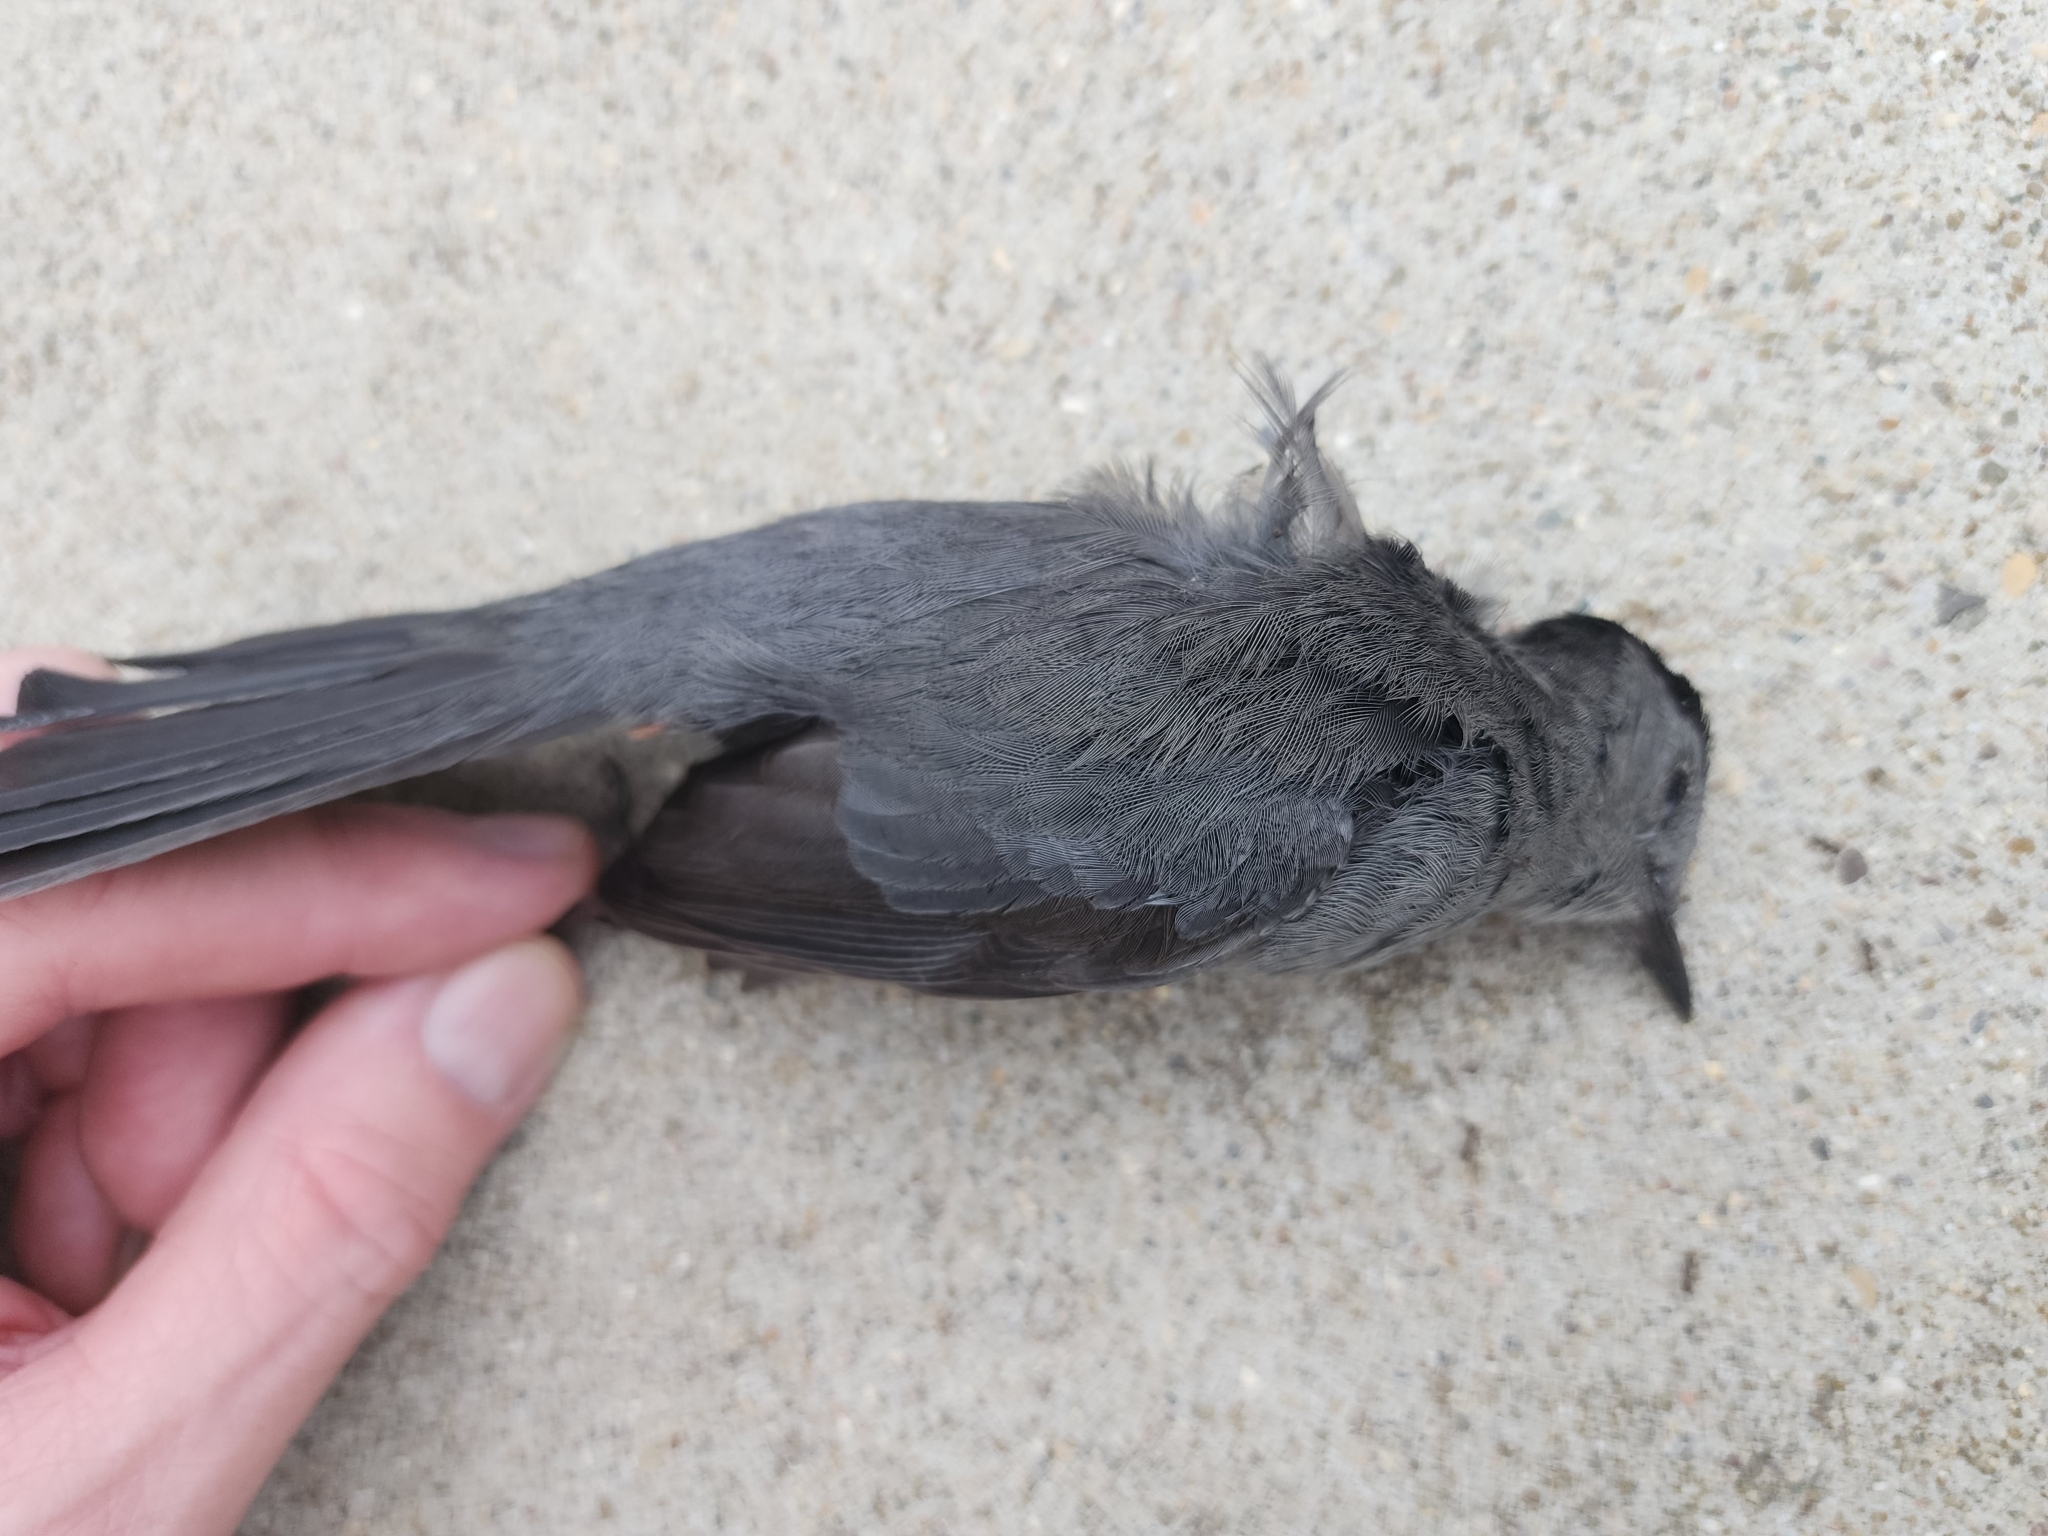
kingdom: Animalia
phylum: Chordata
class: Aves
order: Passeriformes
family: Mimidae
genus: Dumetella
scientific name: Dumetella carolinensis
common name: Gray catbird
